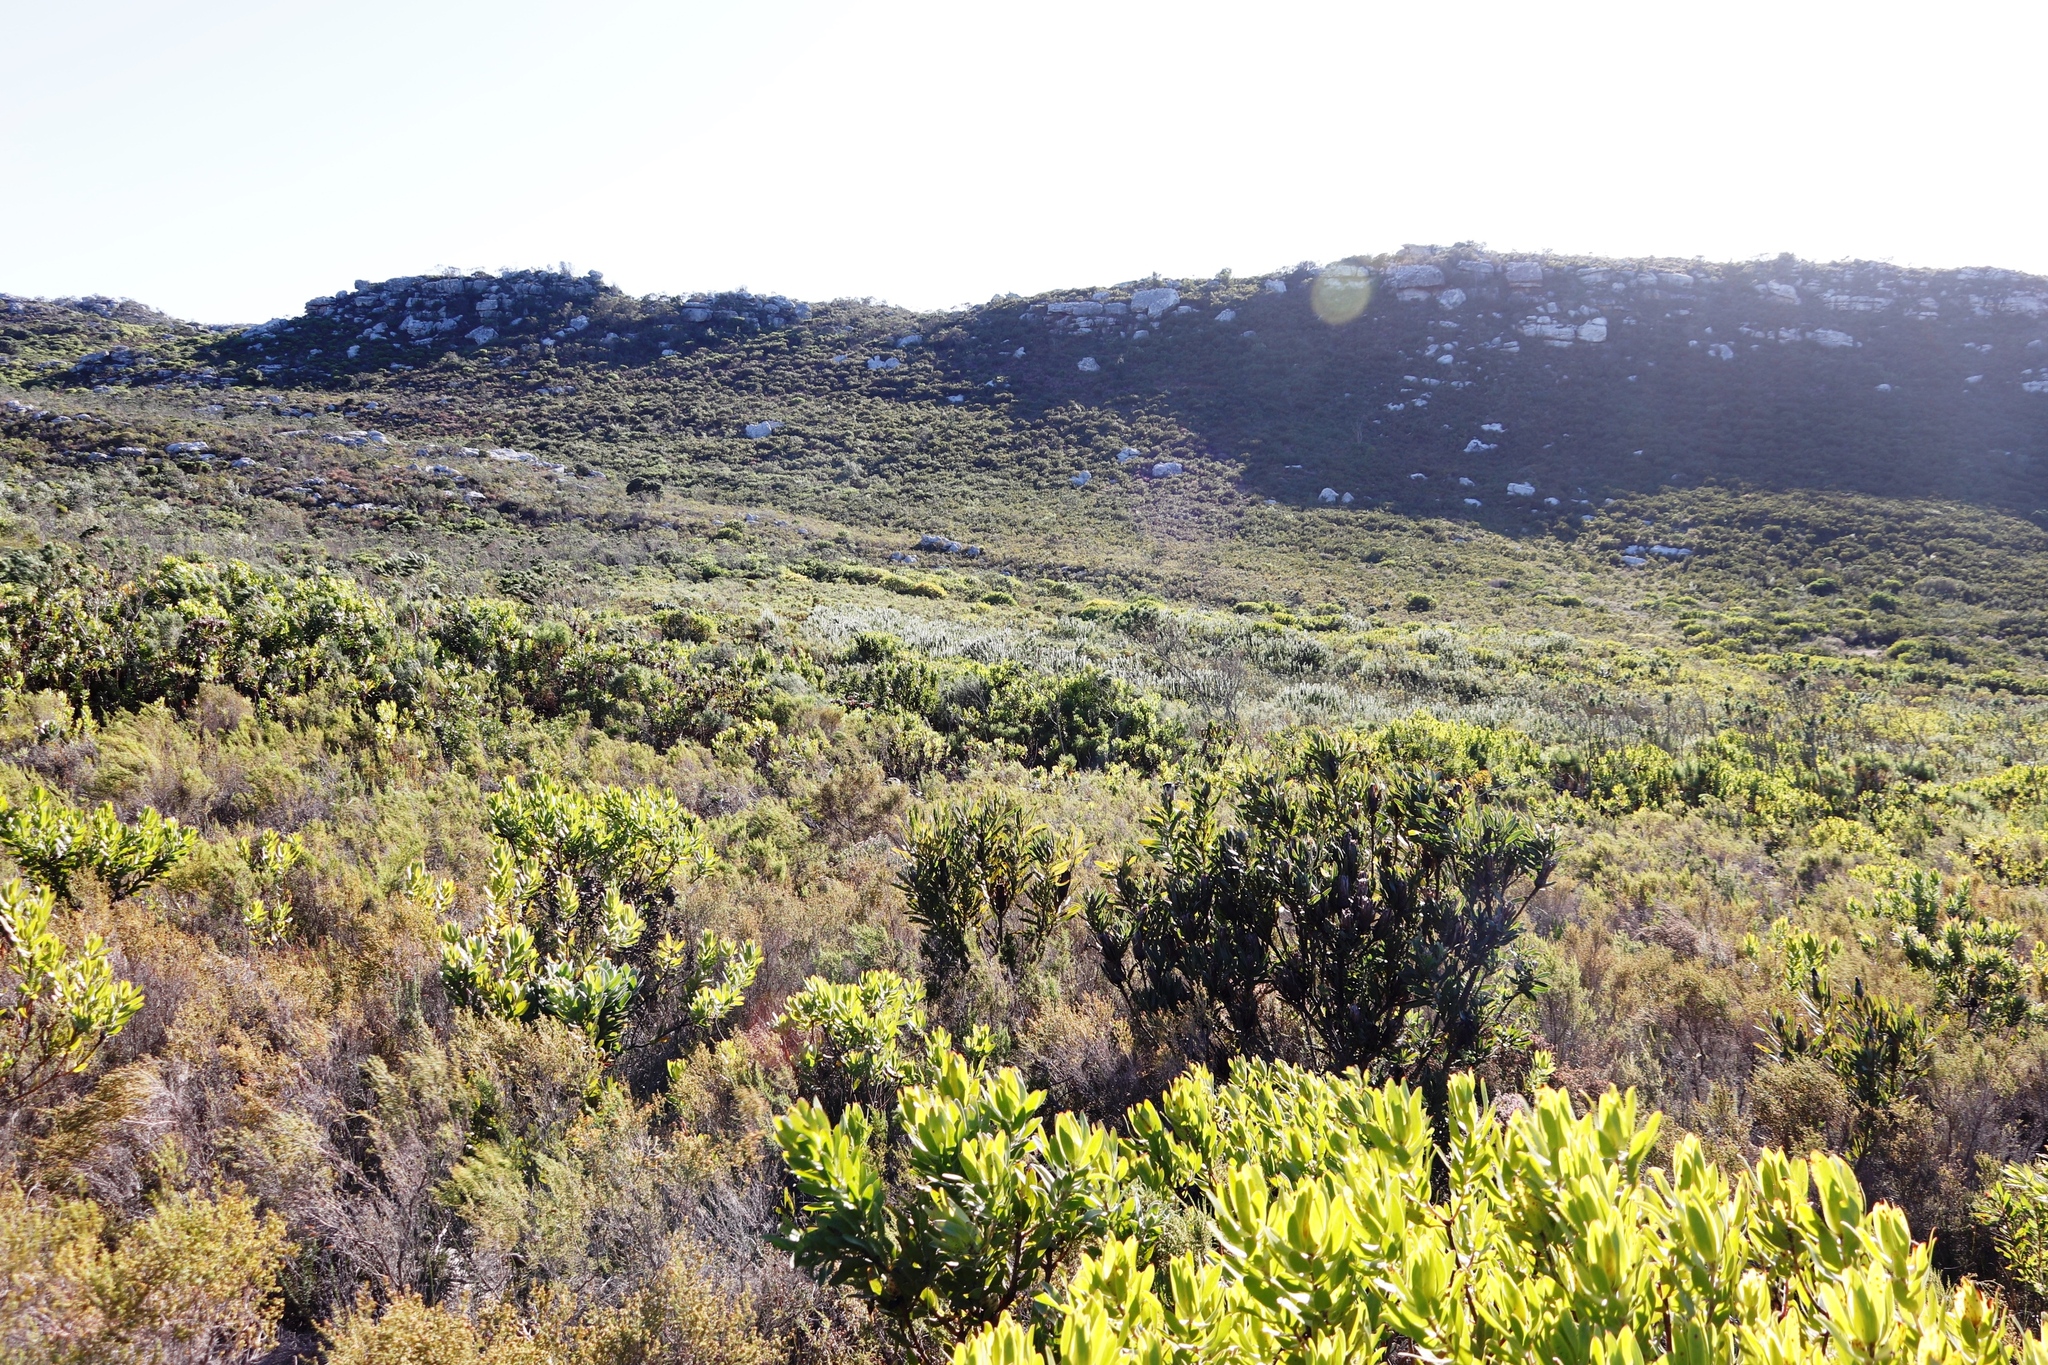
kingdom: Plantae
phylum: Tracheophyta
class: Magnoliopsida
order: Proteales
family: Proteaceae
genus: Protea
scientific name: Protea lepidocarpodendron
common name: Black-bearded protea
